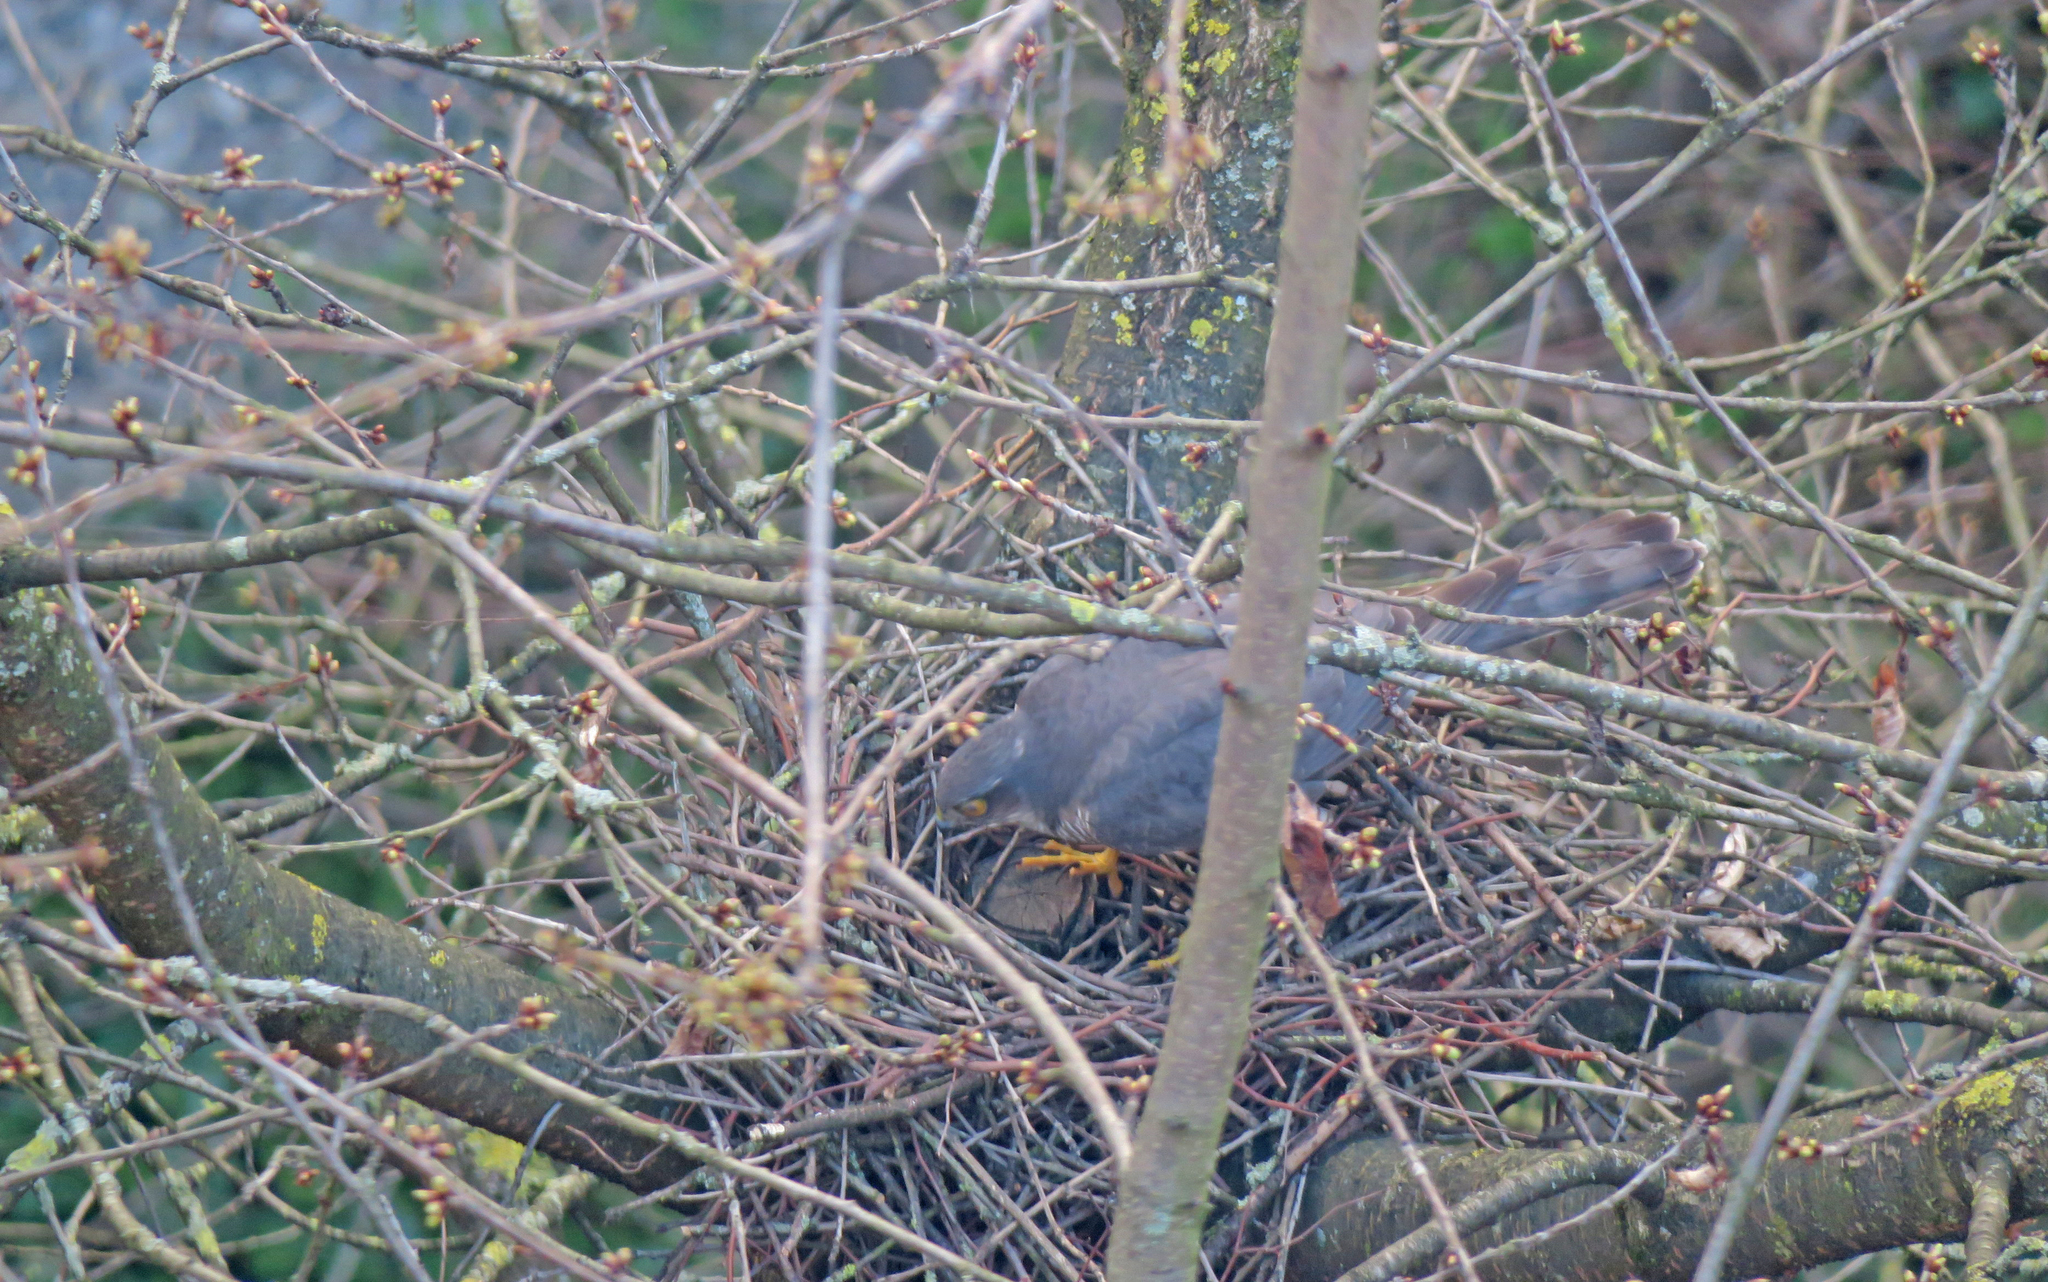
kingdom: Animalia
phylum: Chordata
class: Aves
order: Accipitriformes
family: Accipitridae
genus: Accipiter
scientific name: Accipiter nisus
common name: Eurasian sparrowhawk
